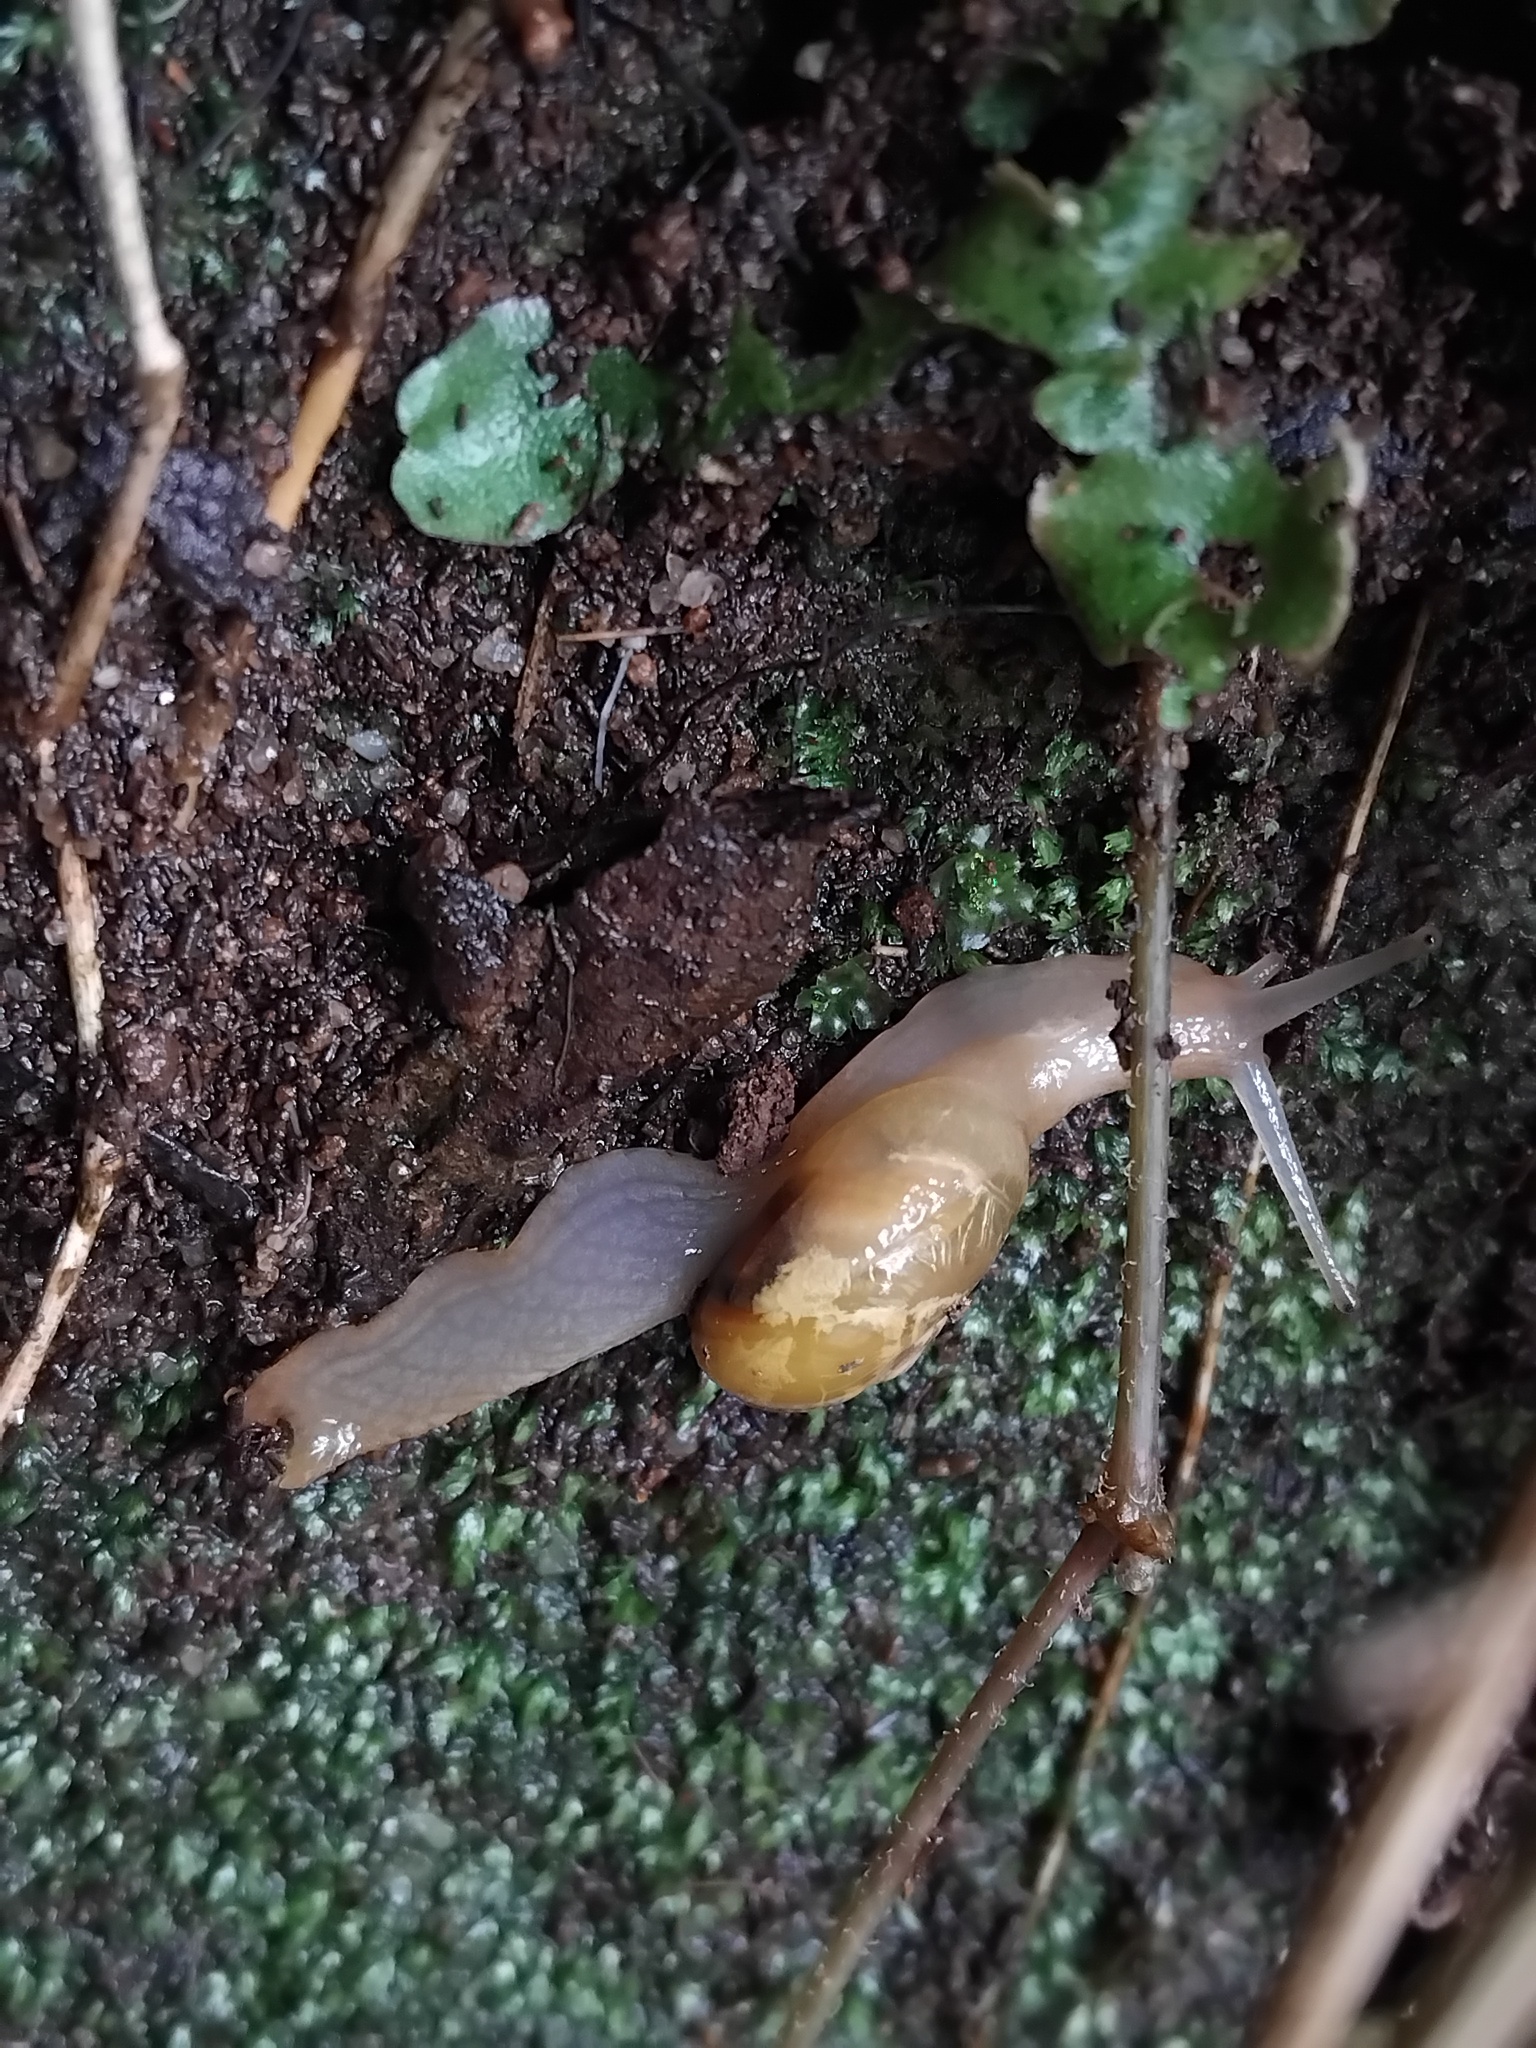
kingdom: Animalia
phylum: Mollusca
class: Gastropoda
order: Stylommatophora
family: Helicarionidae
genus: Mysticarion
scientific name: Mysticarion porrectus
